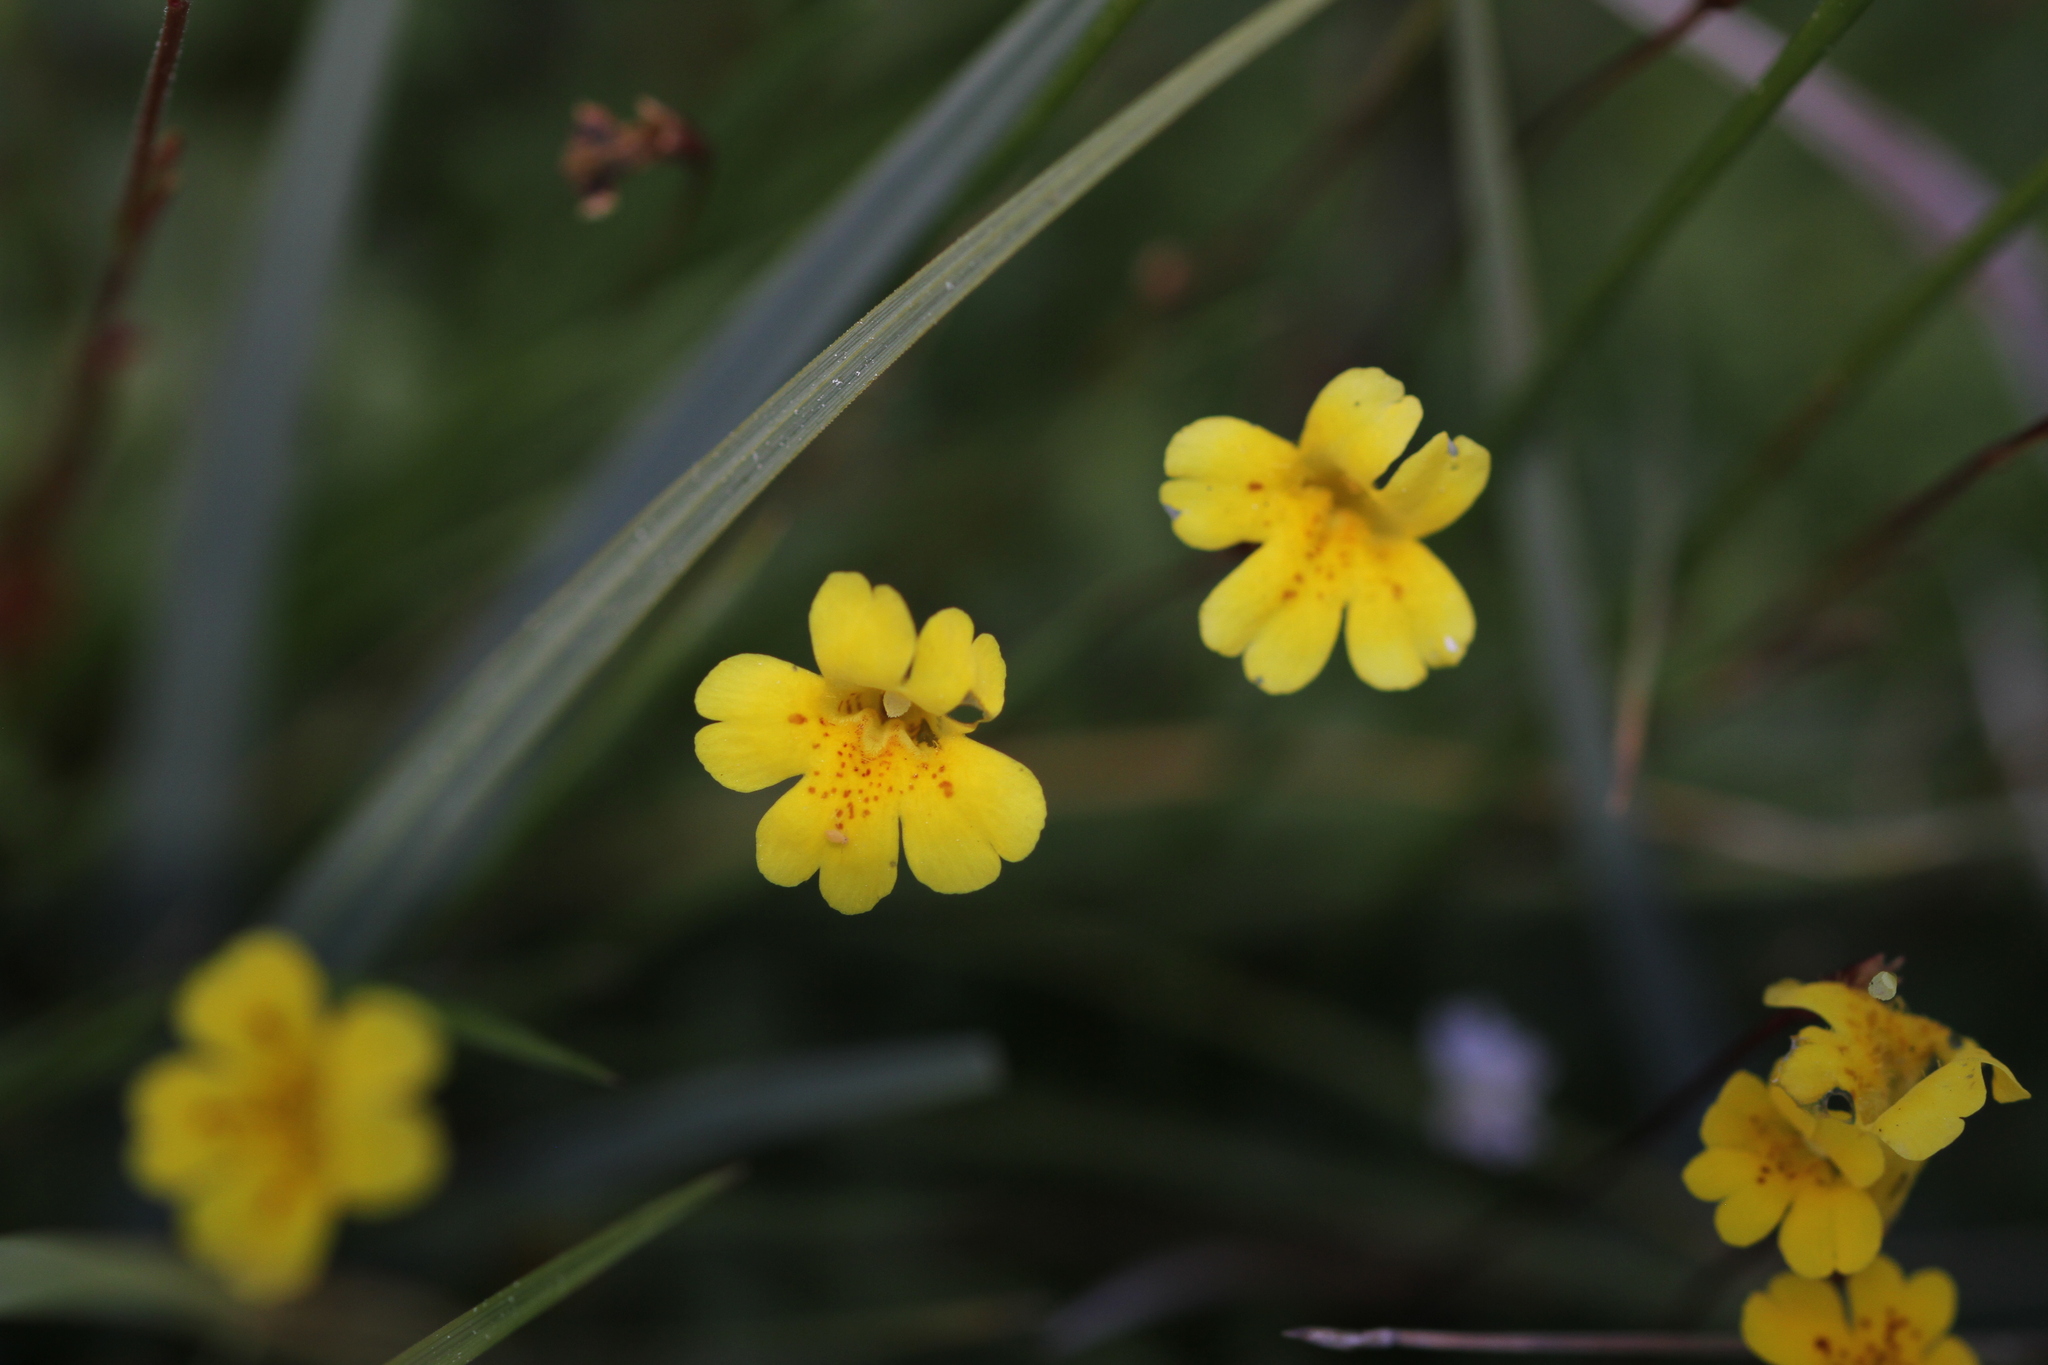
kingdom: Plantae
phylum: Tracheophyta
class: Magnoliopsida
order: Lamiales
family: Phrymaceae
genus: Erythranthe
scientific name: Erythranthe primuloides
